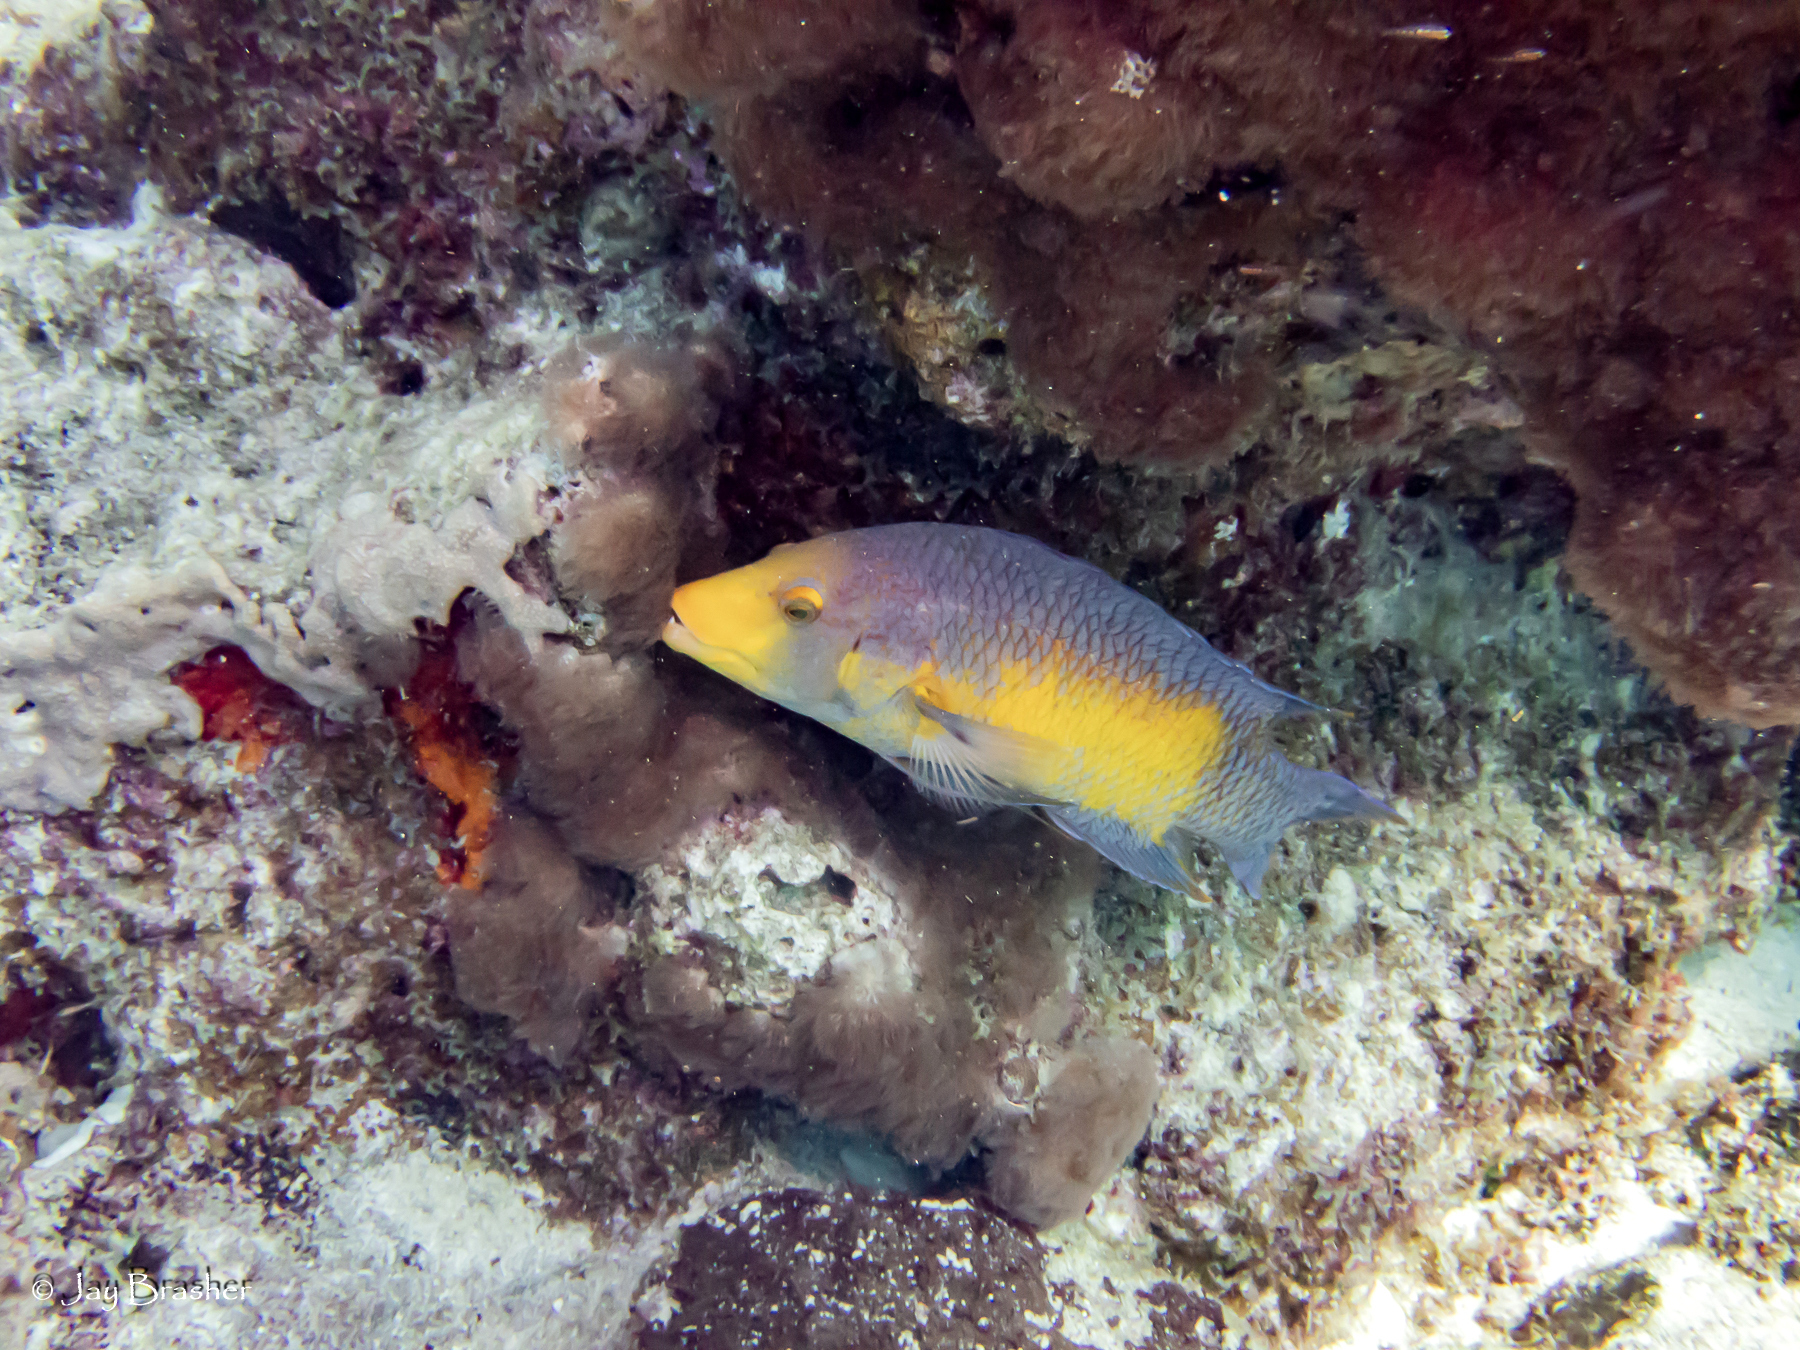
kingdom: Animalia
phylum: Chordata
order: Perciformes
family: Labridae
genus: Bodianus
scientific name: Bodianus rufus
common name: Spanish hogfish
